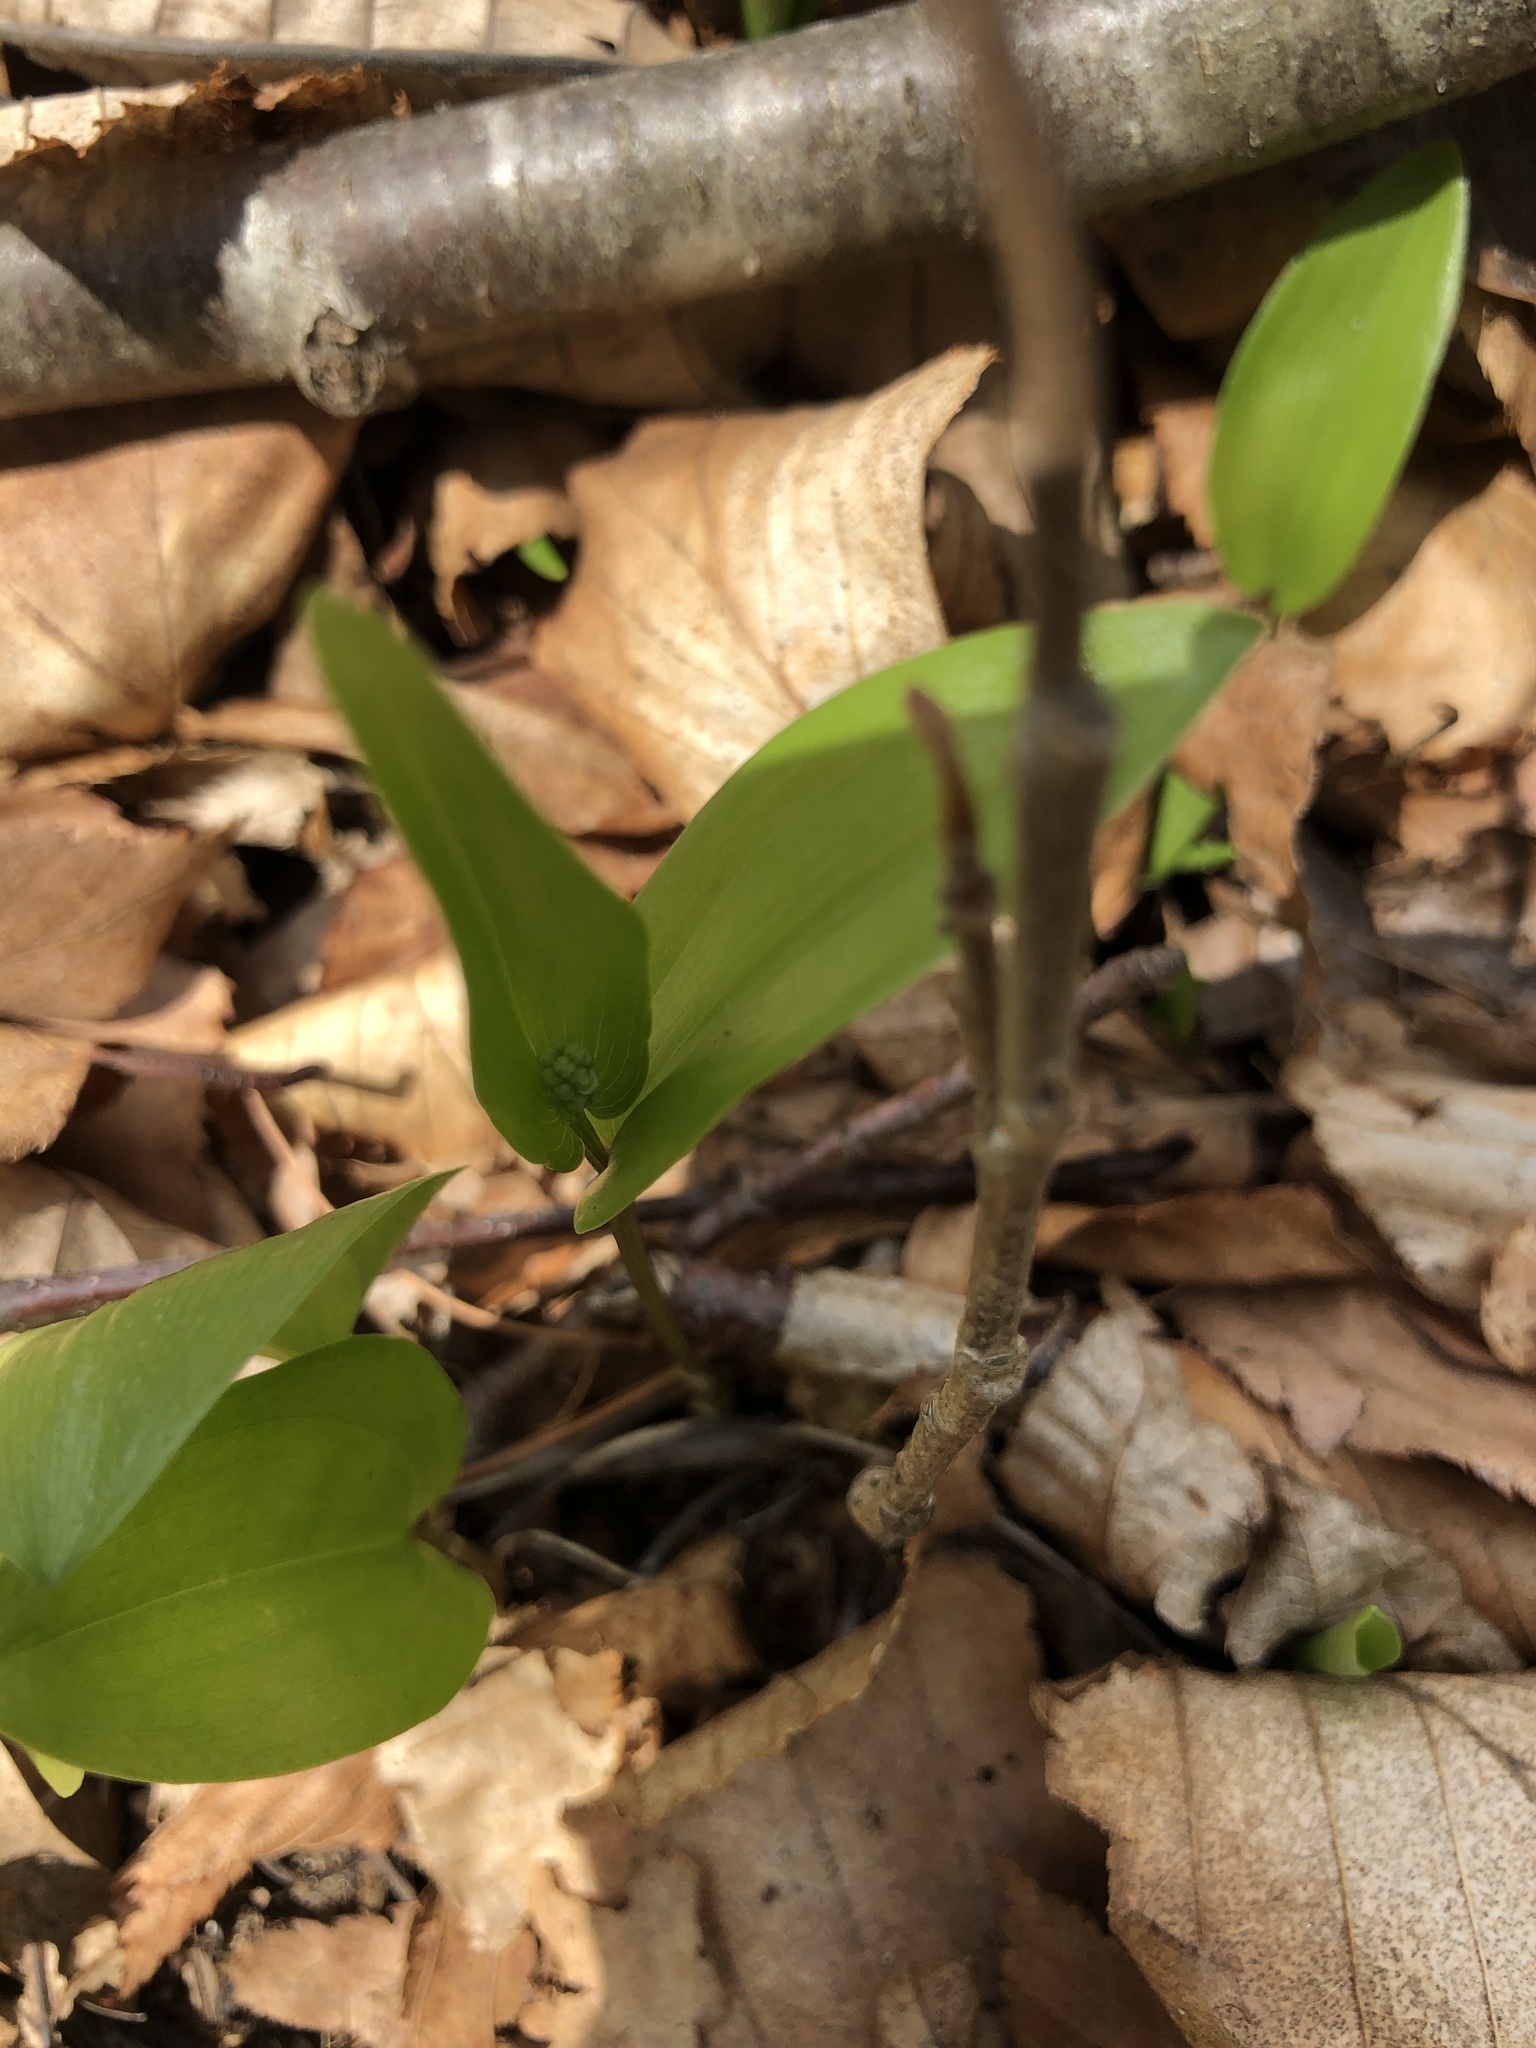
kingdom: Plantae
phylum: Tracheophyta
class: Liliopsida
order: Asparagales
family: Asparagaceae
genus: Maianthemum
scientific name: Maianthemum canadense
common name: False lily-of-the-valley
